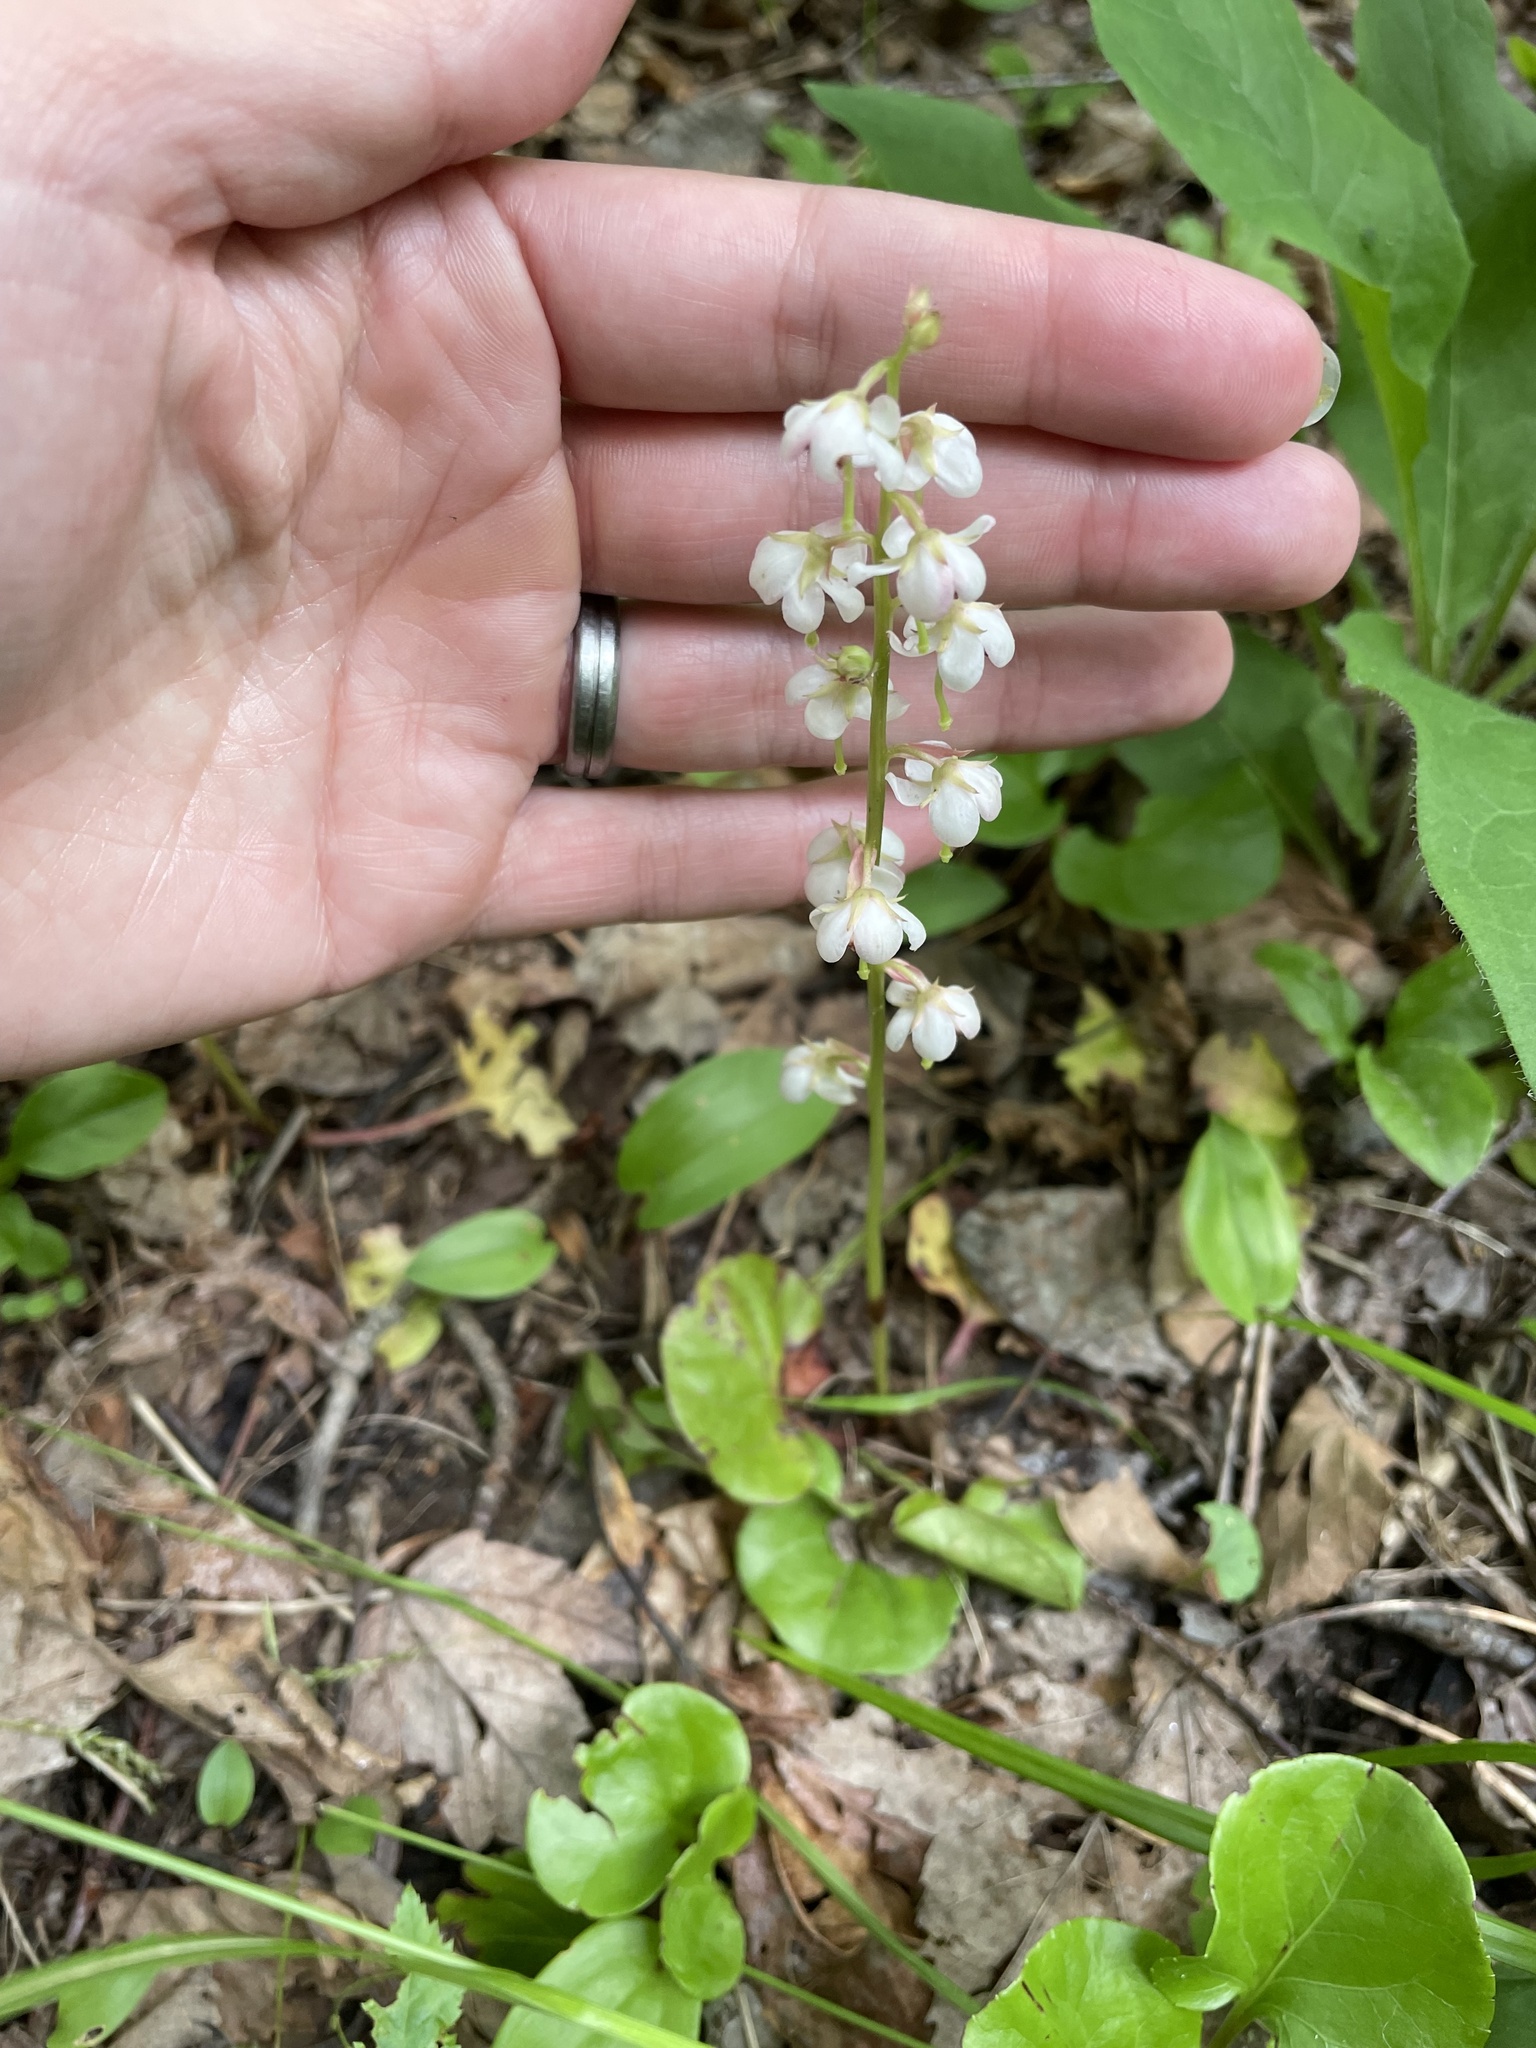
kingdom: Plantae
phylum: Tracheophyta
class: Magnoliopsida
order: Ericales
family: Ericaceae
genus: Pyrola
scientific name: Pyrola asarifolia
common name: Bog wintergreen
